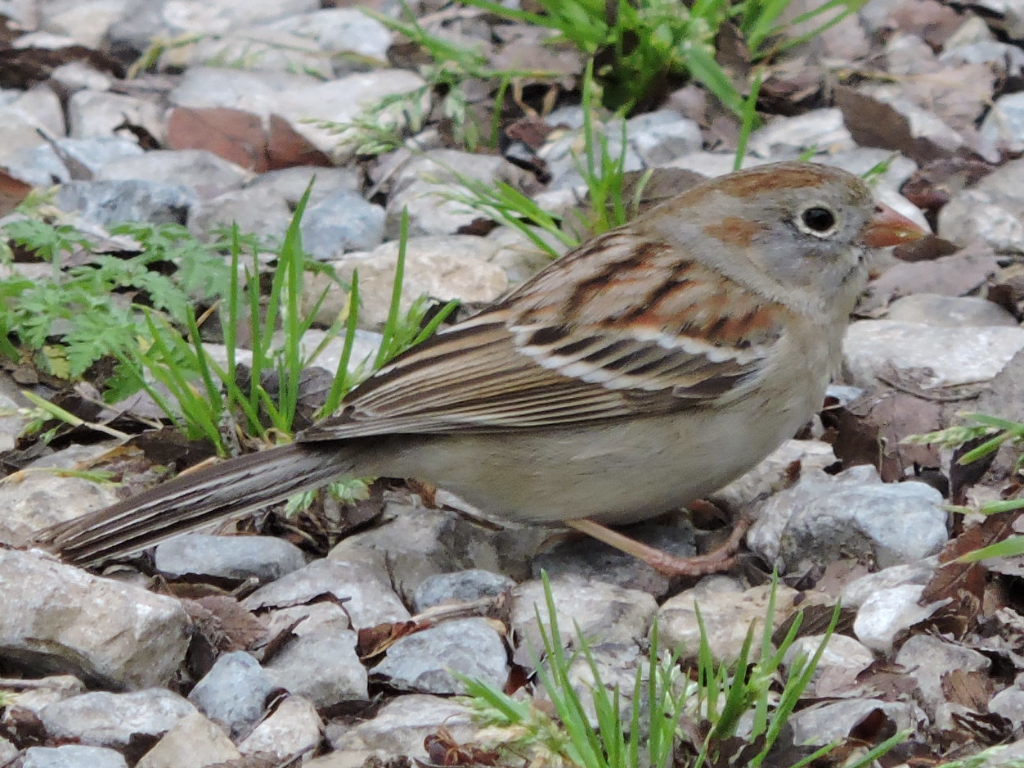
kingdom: Animalia
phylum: Chordata
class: Aves
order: Passeriformes
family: Passerellidae
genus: Spizella
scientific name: Spizella pusilla
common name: Field sparrow
